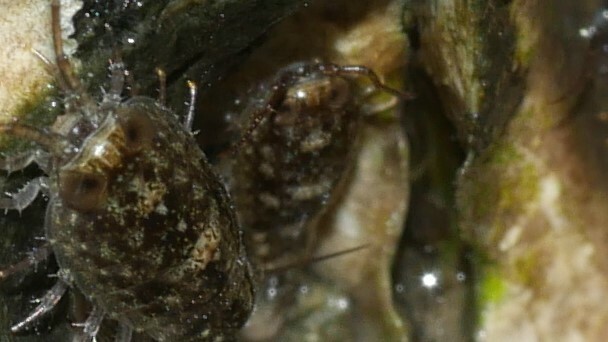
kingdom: Animalia
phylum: Arthropoda
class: Malacostraca
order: Isopoda
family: Ligiidae
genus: Ligia
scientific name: Ligia exotica
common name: Wharf roach
